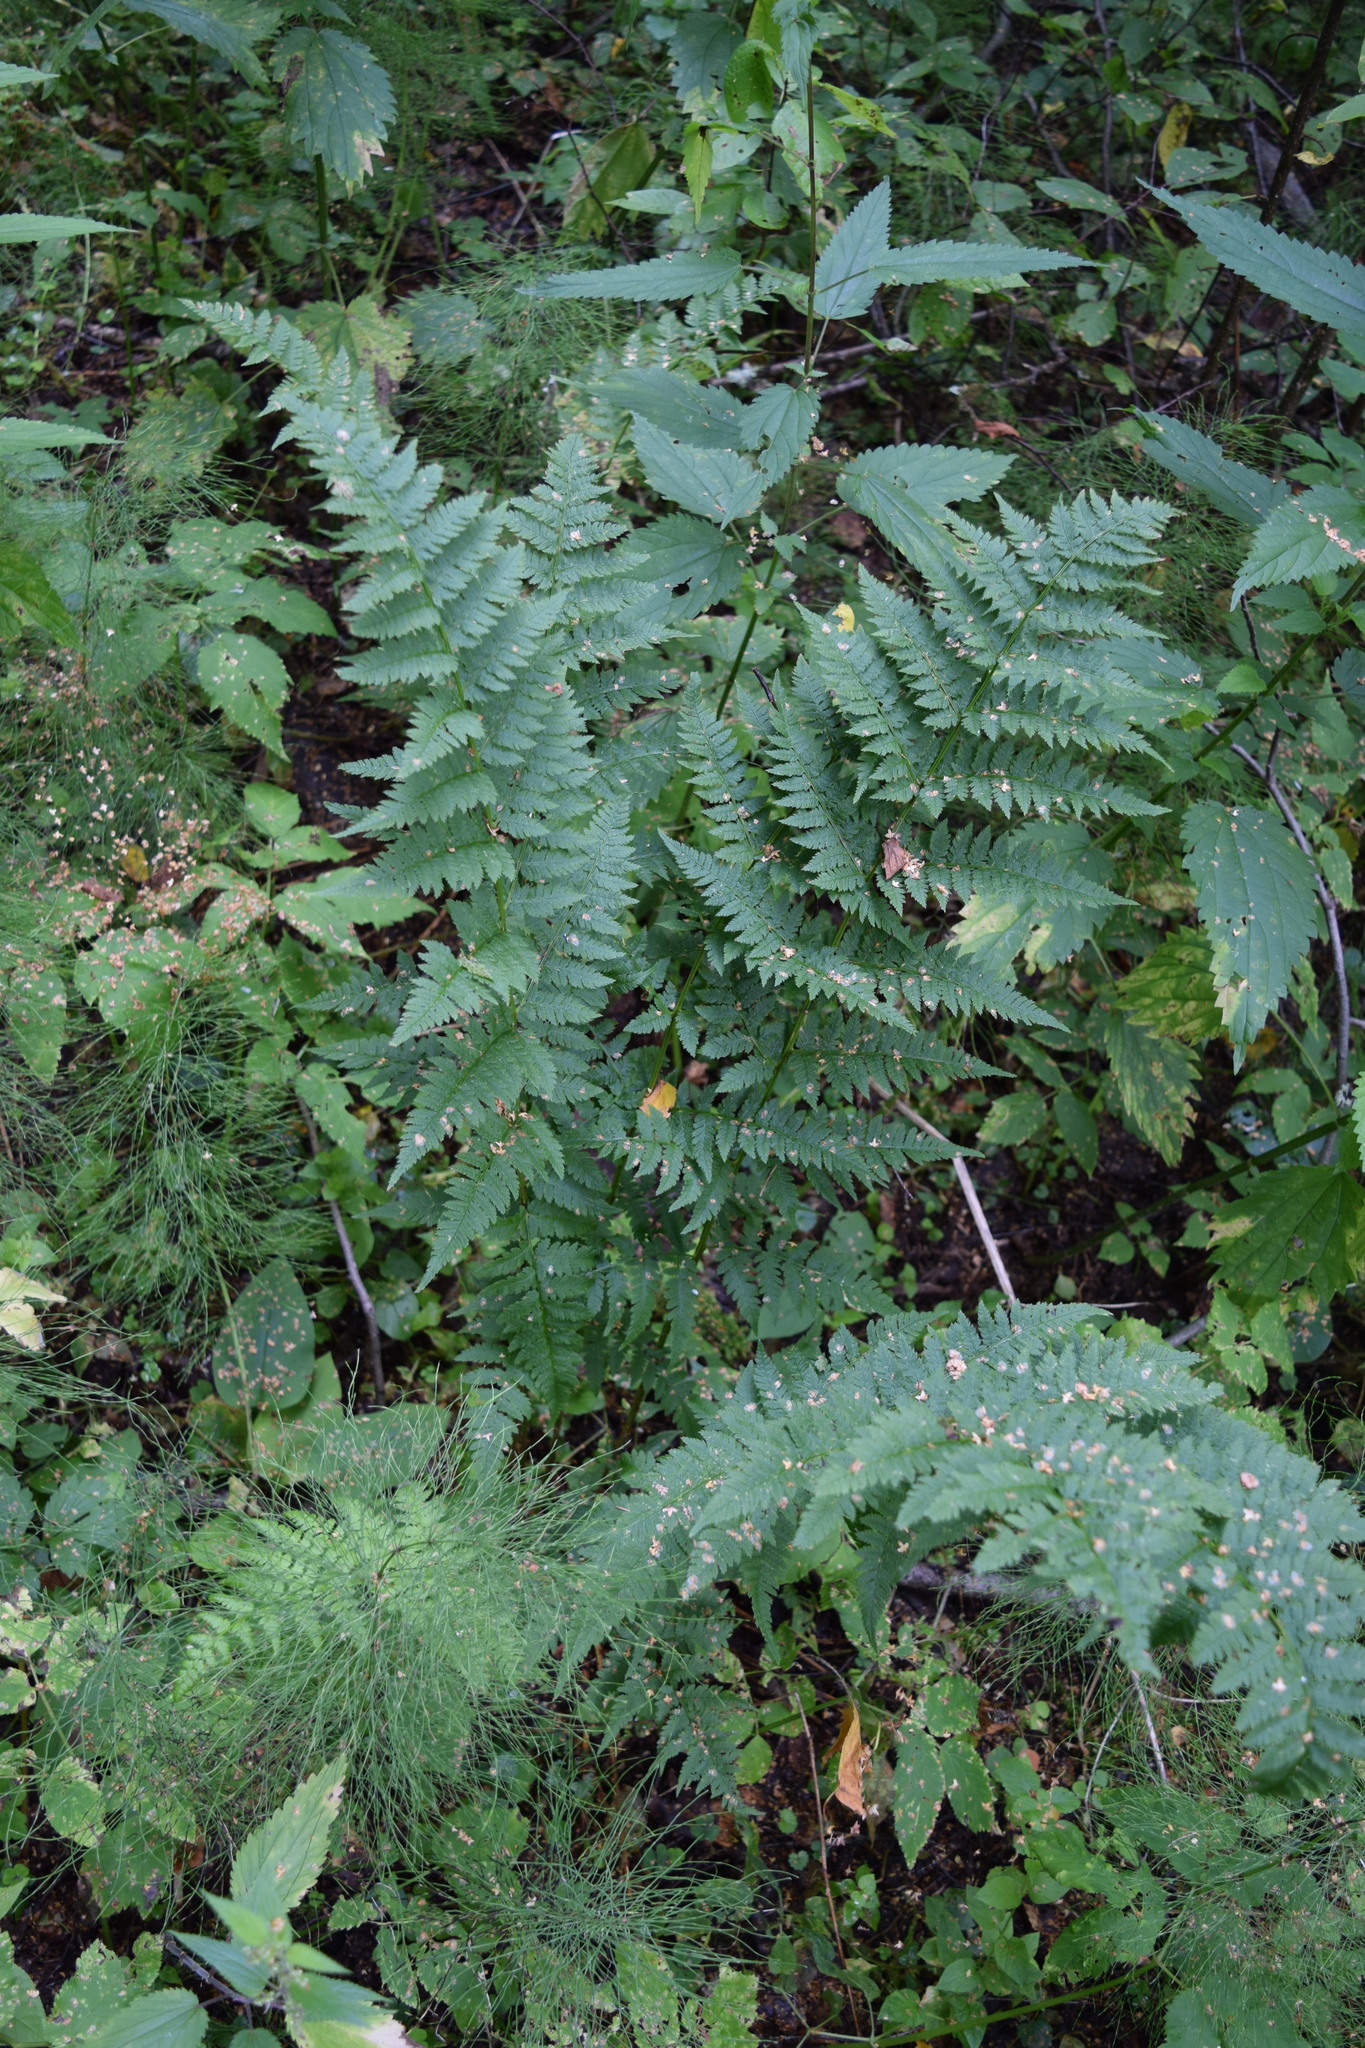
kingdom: Plantae
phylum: Tracheophyta
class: Polypodiopsida
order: Polypodiales
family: Dryopteridaceae
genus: Dryopteris
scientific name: Dryopteris carthusiana
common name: Narrow buckler-fern
